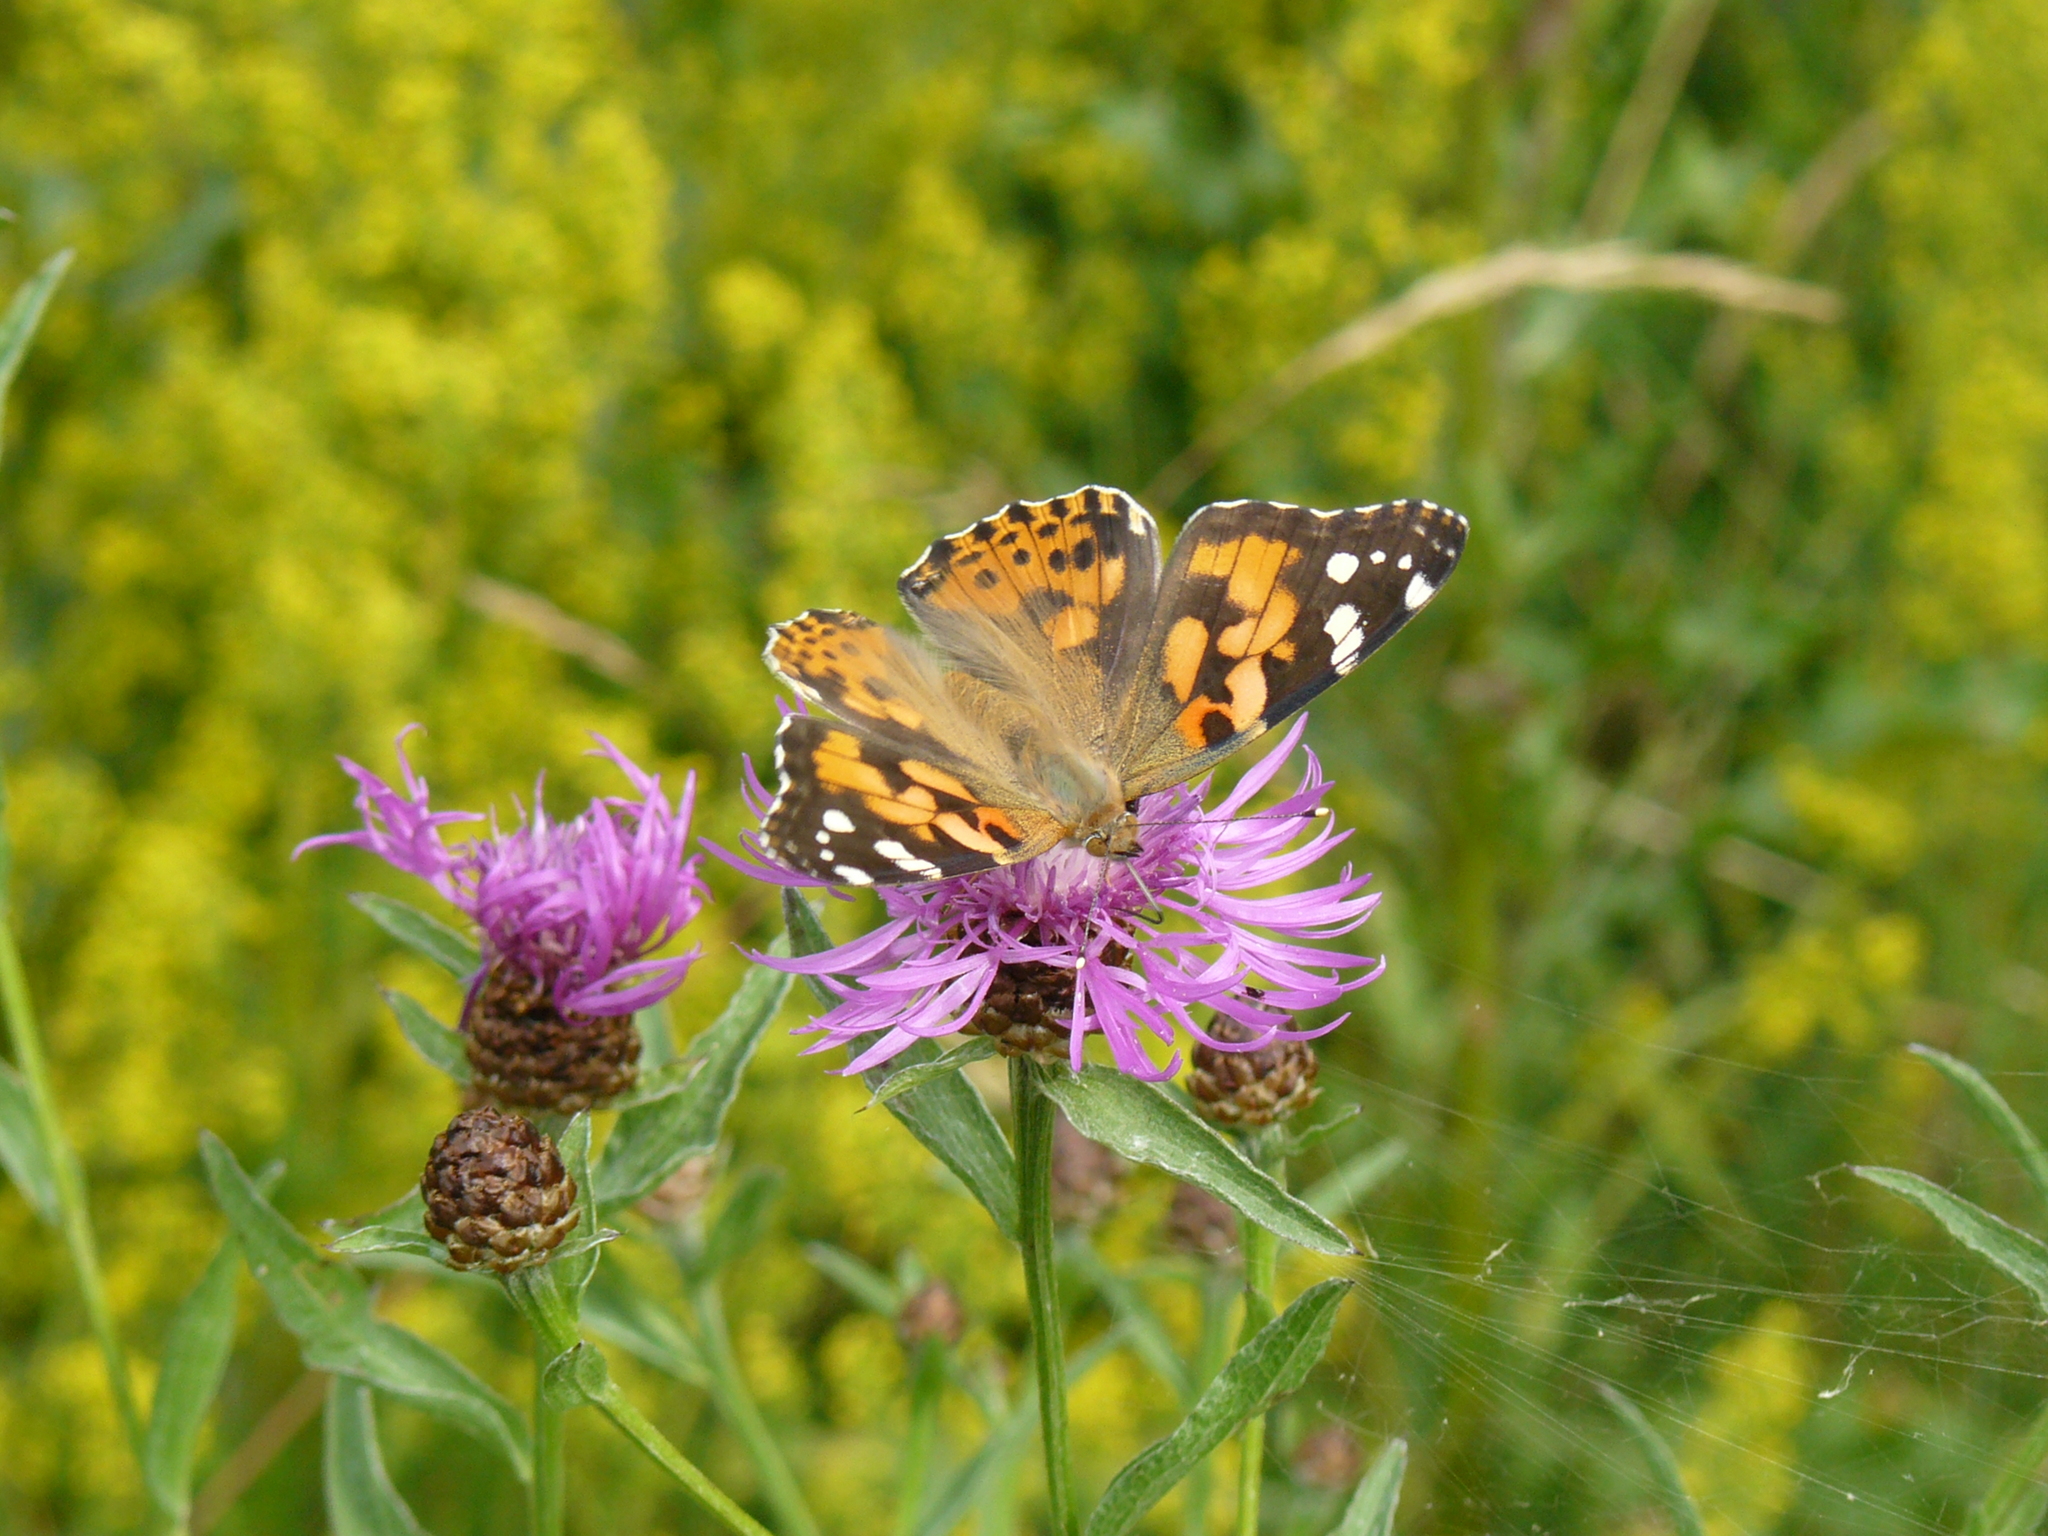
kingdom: Animalia
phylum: Arthropoda
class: Insecta
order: Lepidoptera
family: Nymphalidae
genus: Vanessa
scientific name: Vanessa cardui
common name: Painted lady
